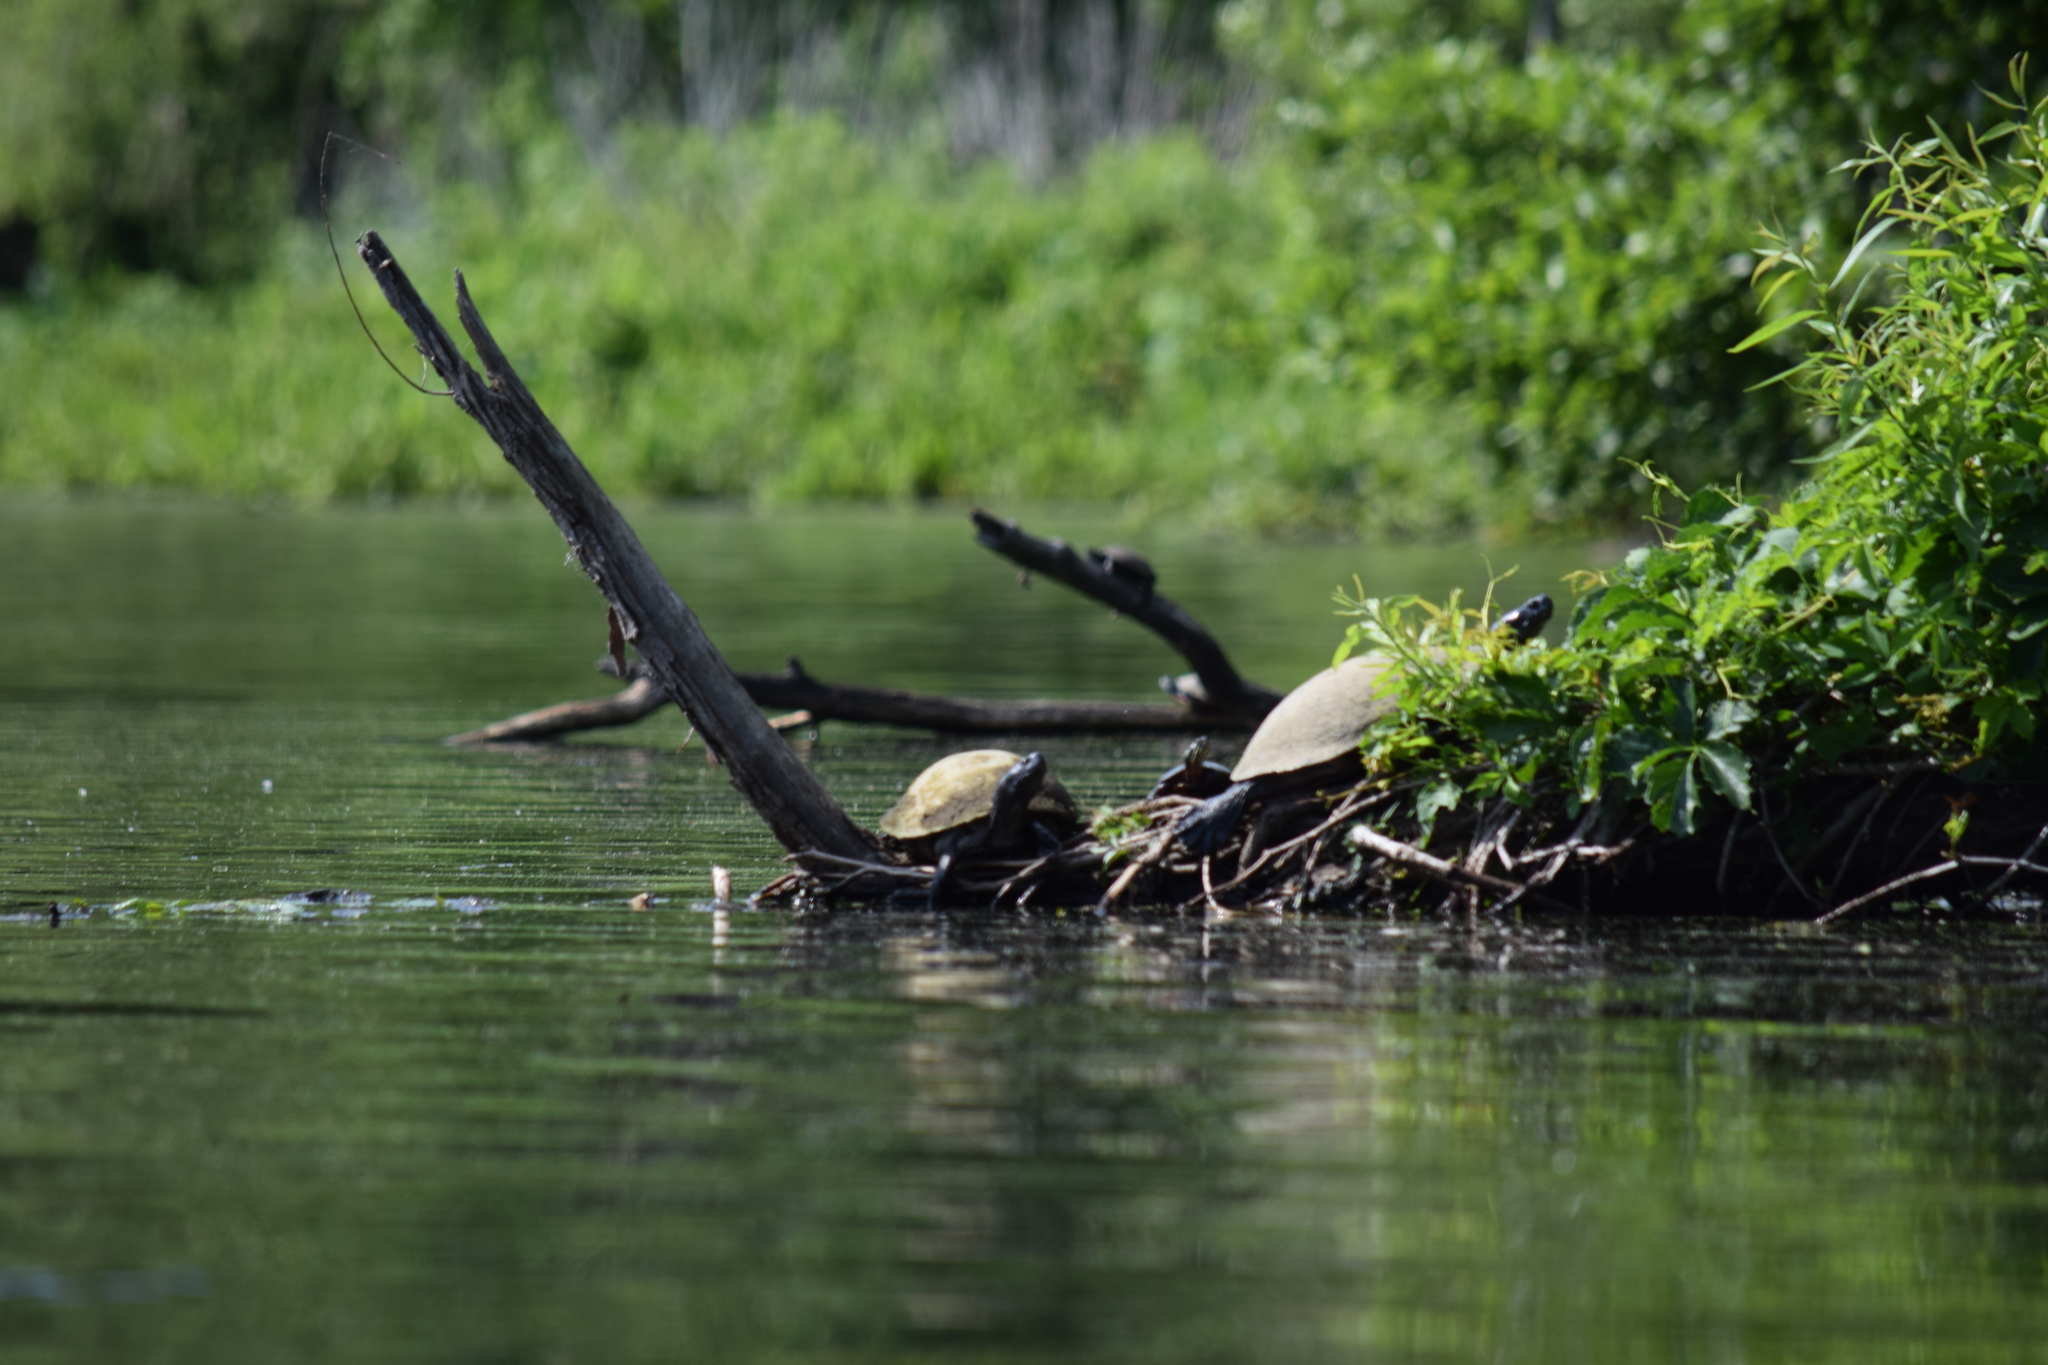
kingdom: Animalia
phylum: Chordata
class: Testudines
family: Emydidae
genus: Pseudemys
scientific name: Pseudemys rubriventris
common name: American red-bellied turtle
